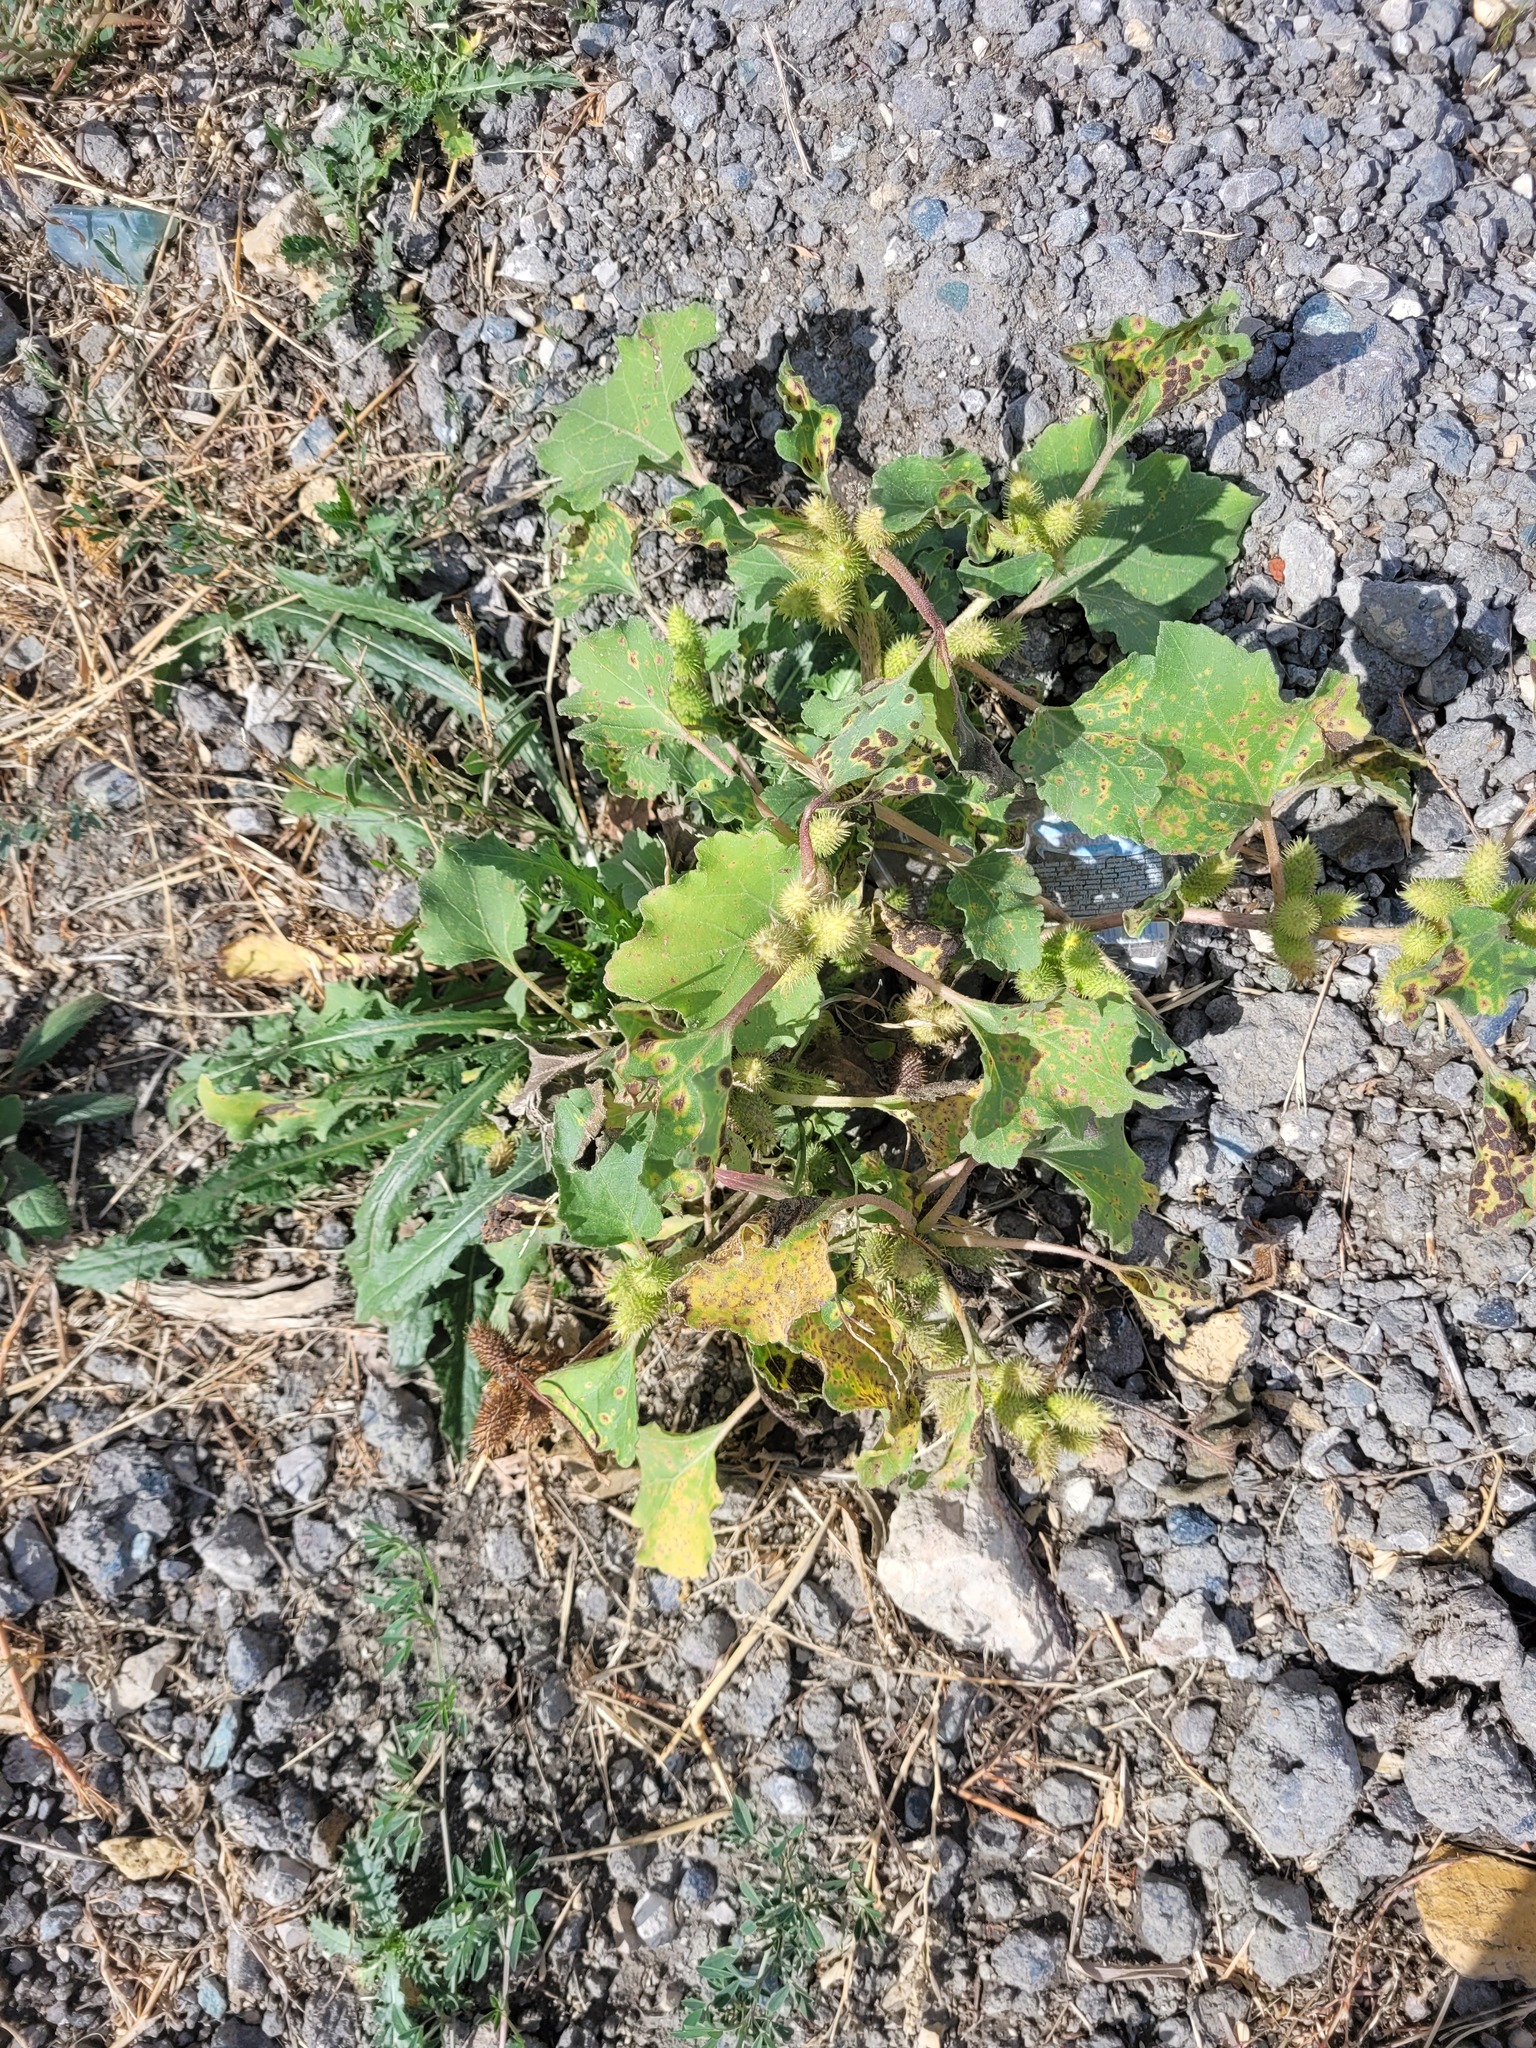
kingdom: Plantae
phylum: Tracheophyta
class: Magnoliopsida
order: Asterales
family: Asteraceae
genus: Xanthium
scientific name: Xanthium orientale
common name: Californian burr
